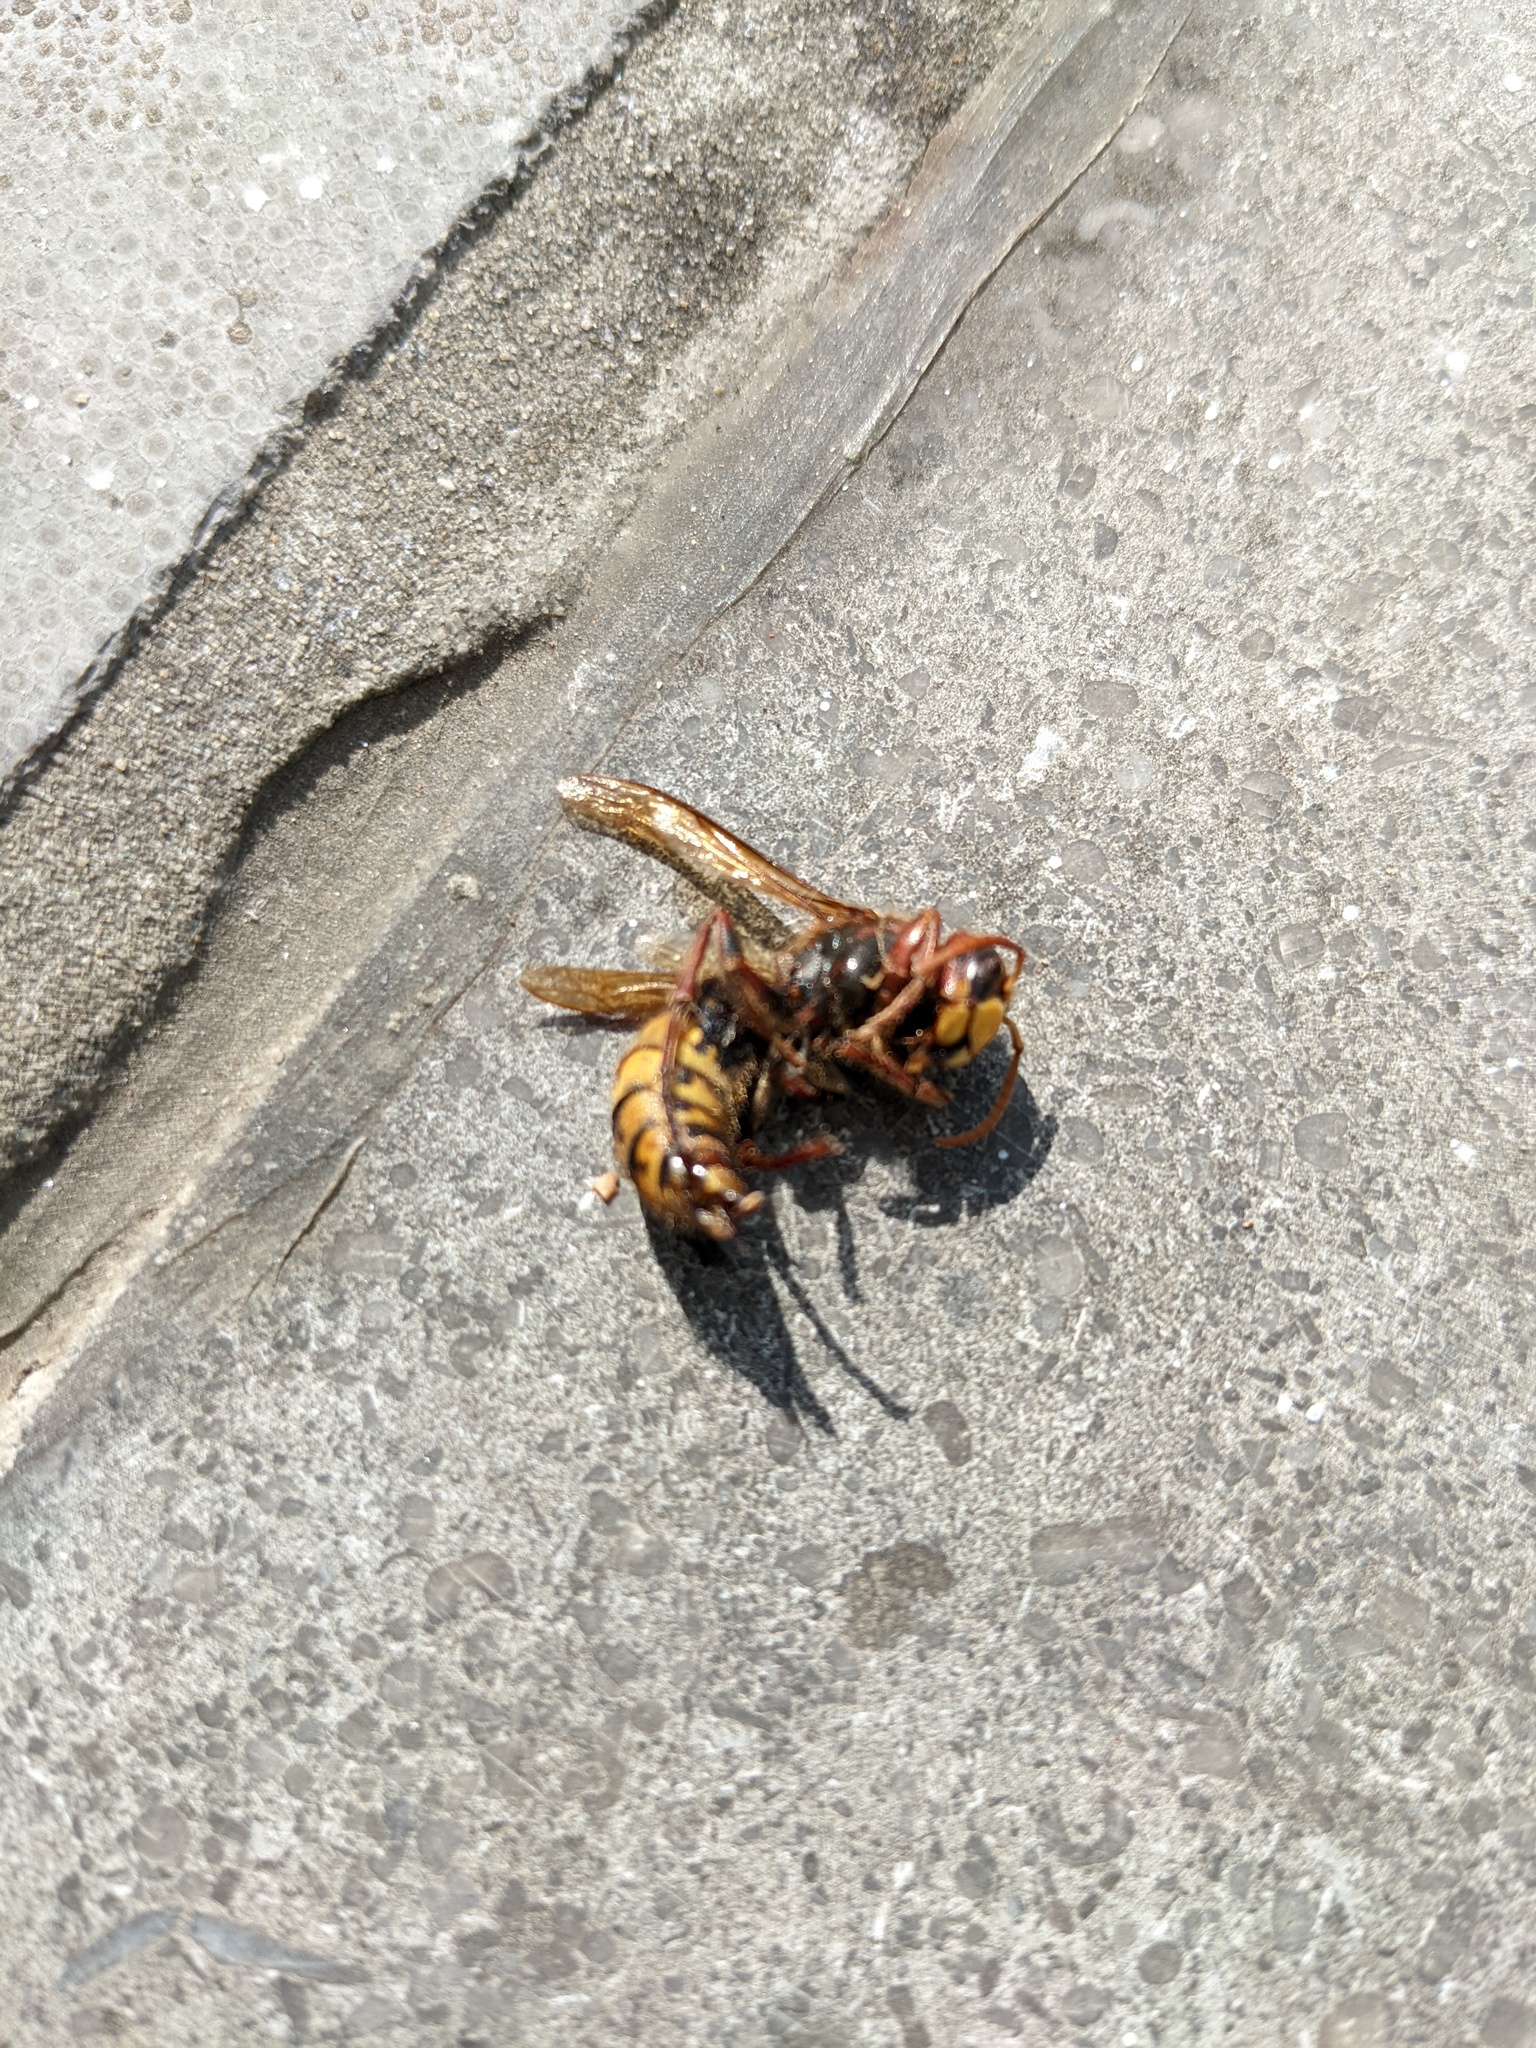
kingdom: Animalia
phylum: Arthropoda
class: Insecta
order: Hymenoptera
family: Vespidae
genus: Vespa
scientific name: Vespa crabro
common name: Hornet
